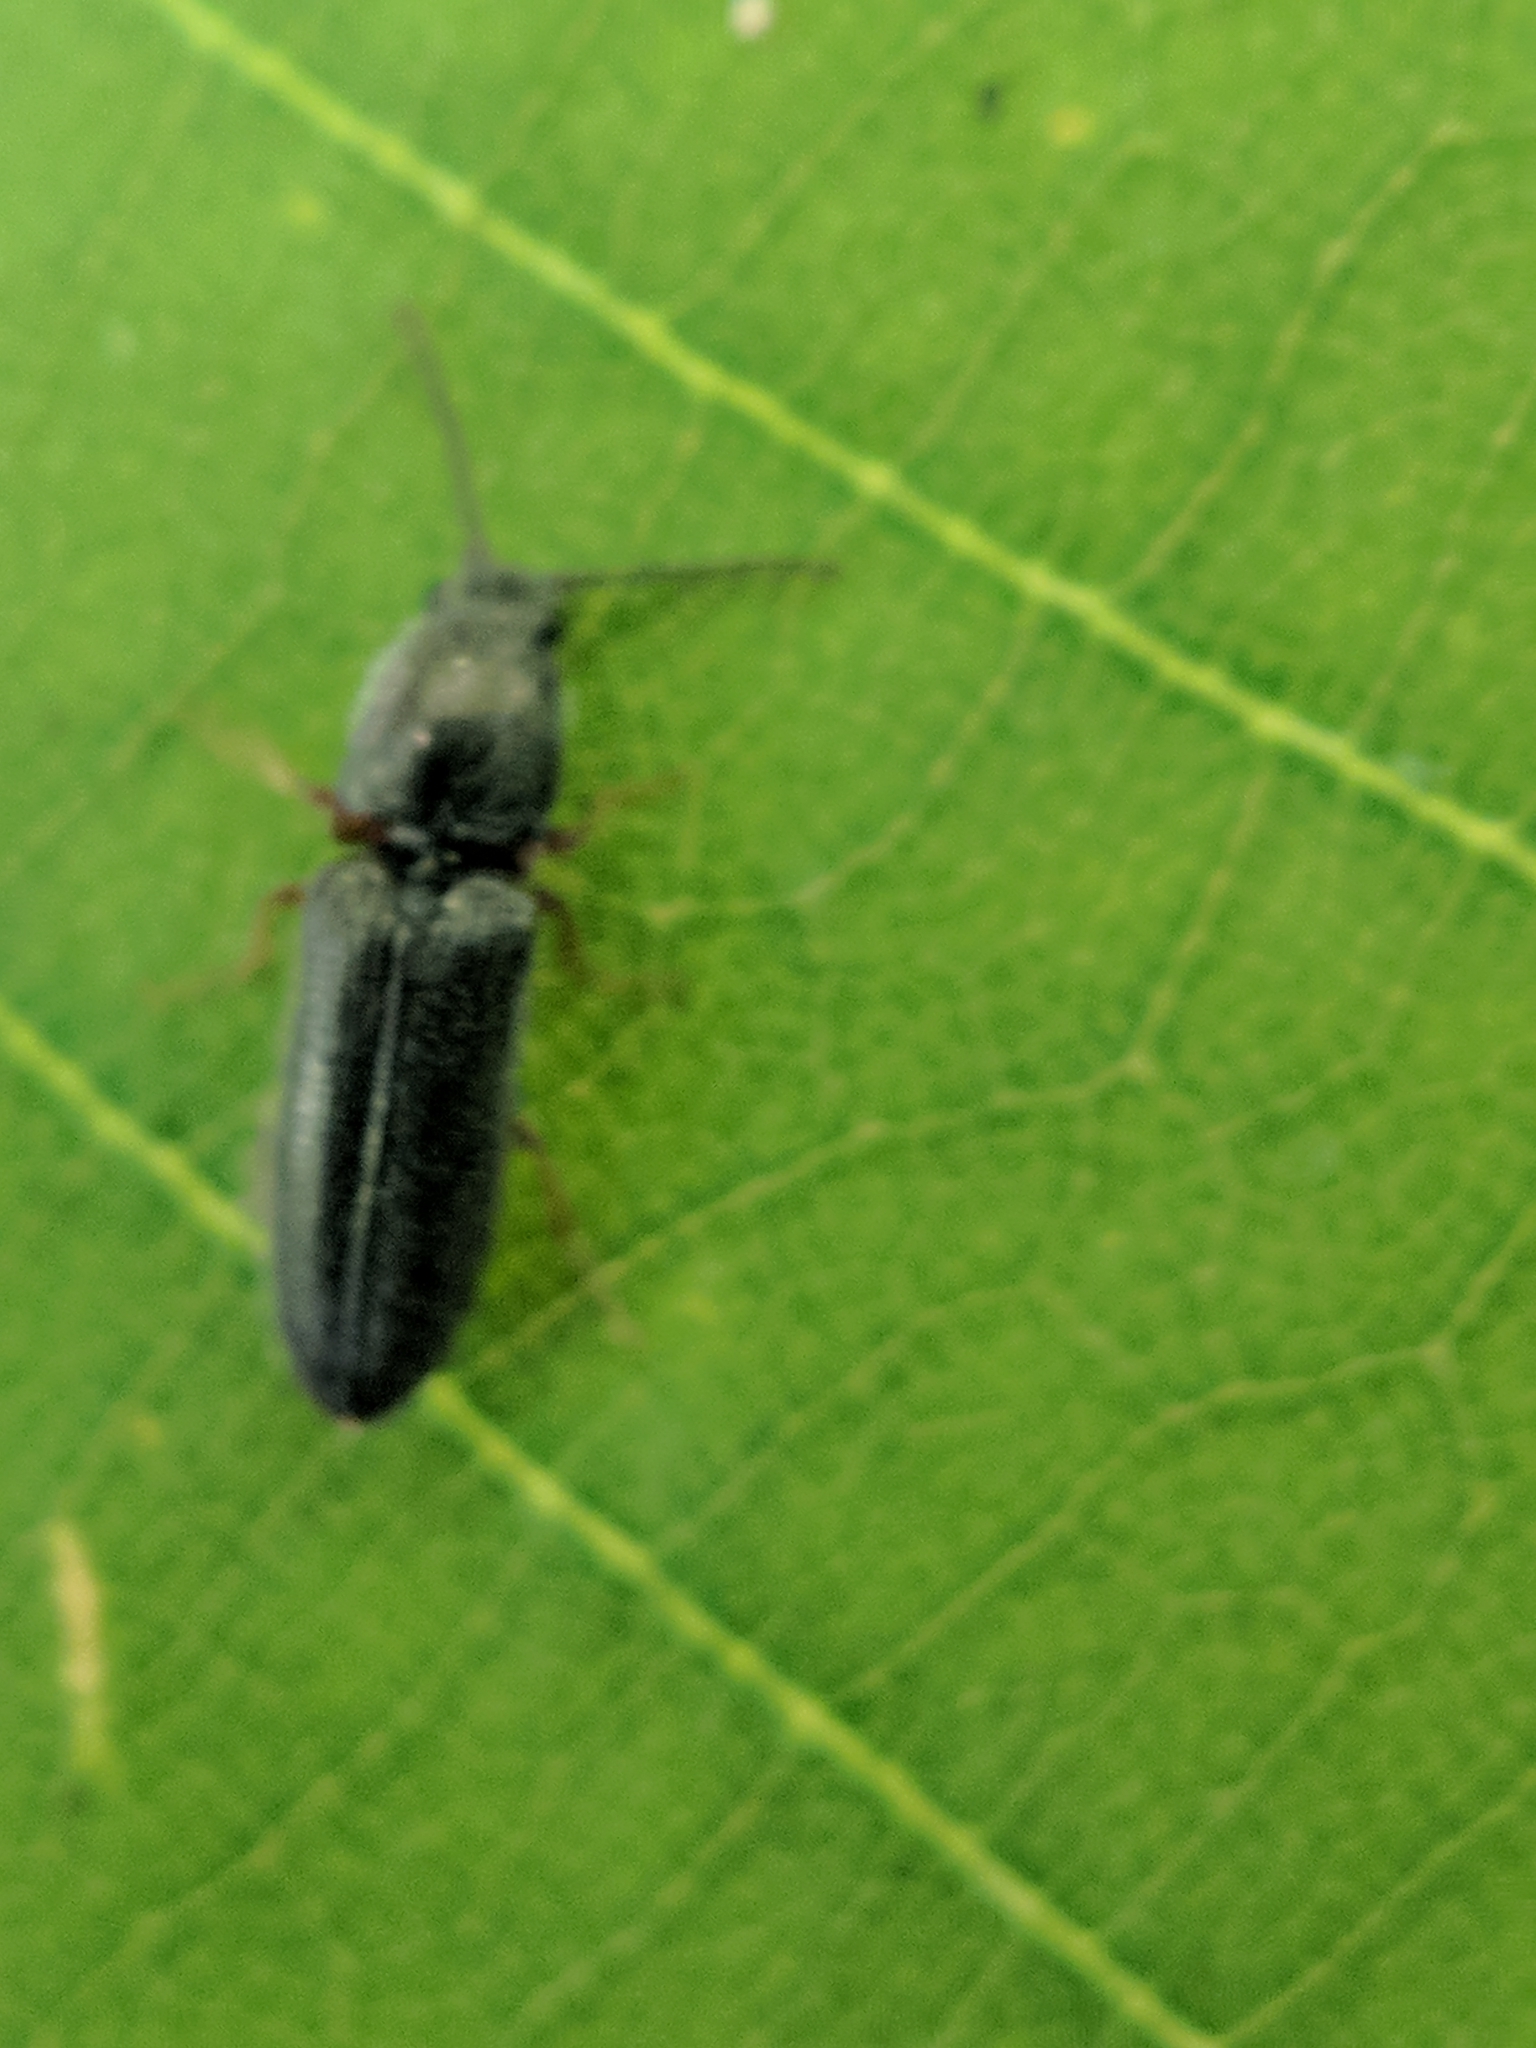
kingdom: Animalia
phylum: Arthropoda
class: Insecta
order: Coleoptera
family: Elateridae
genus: Limonius
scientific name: Limonius basilaris
